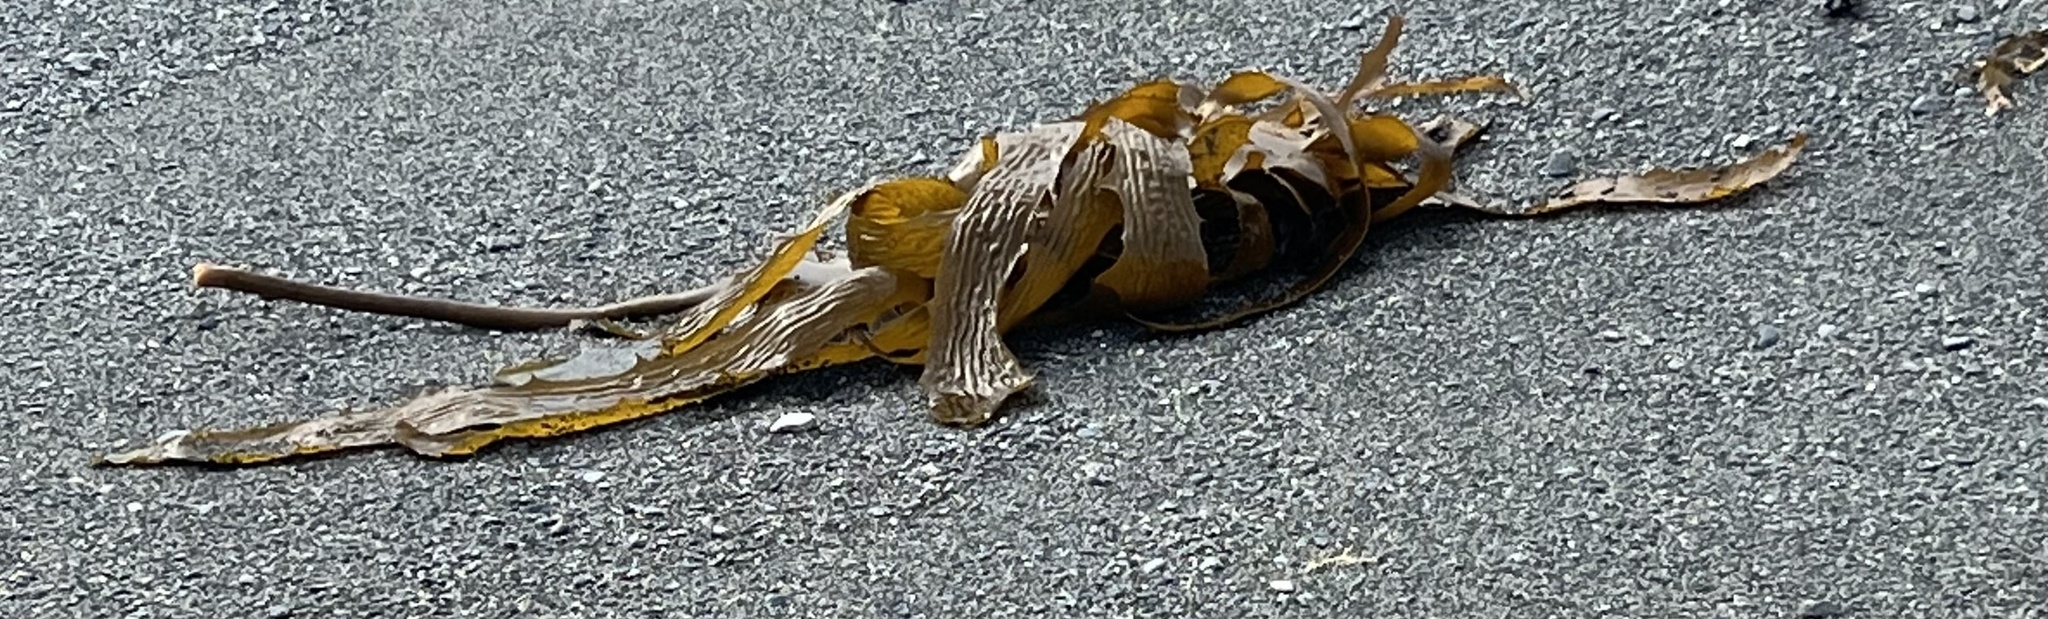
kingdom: Chromista
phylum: Ochrophyta
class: Phaeophyceae
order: Laminariales
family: Lessoniaceae
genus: Ecklonia
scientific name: Ecklonia radiata
